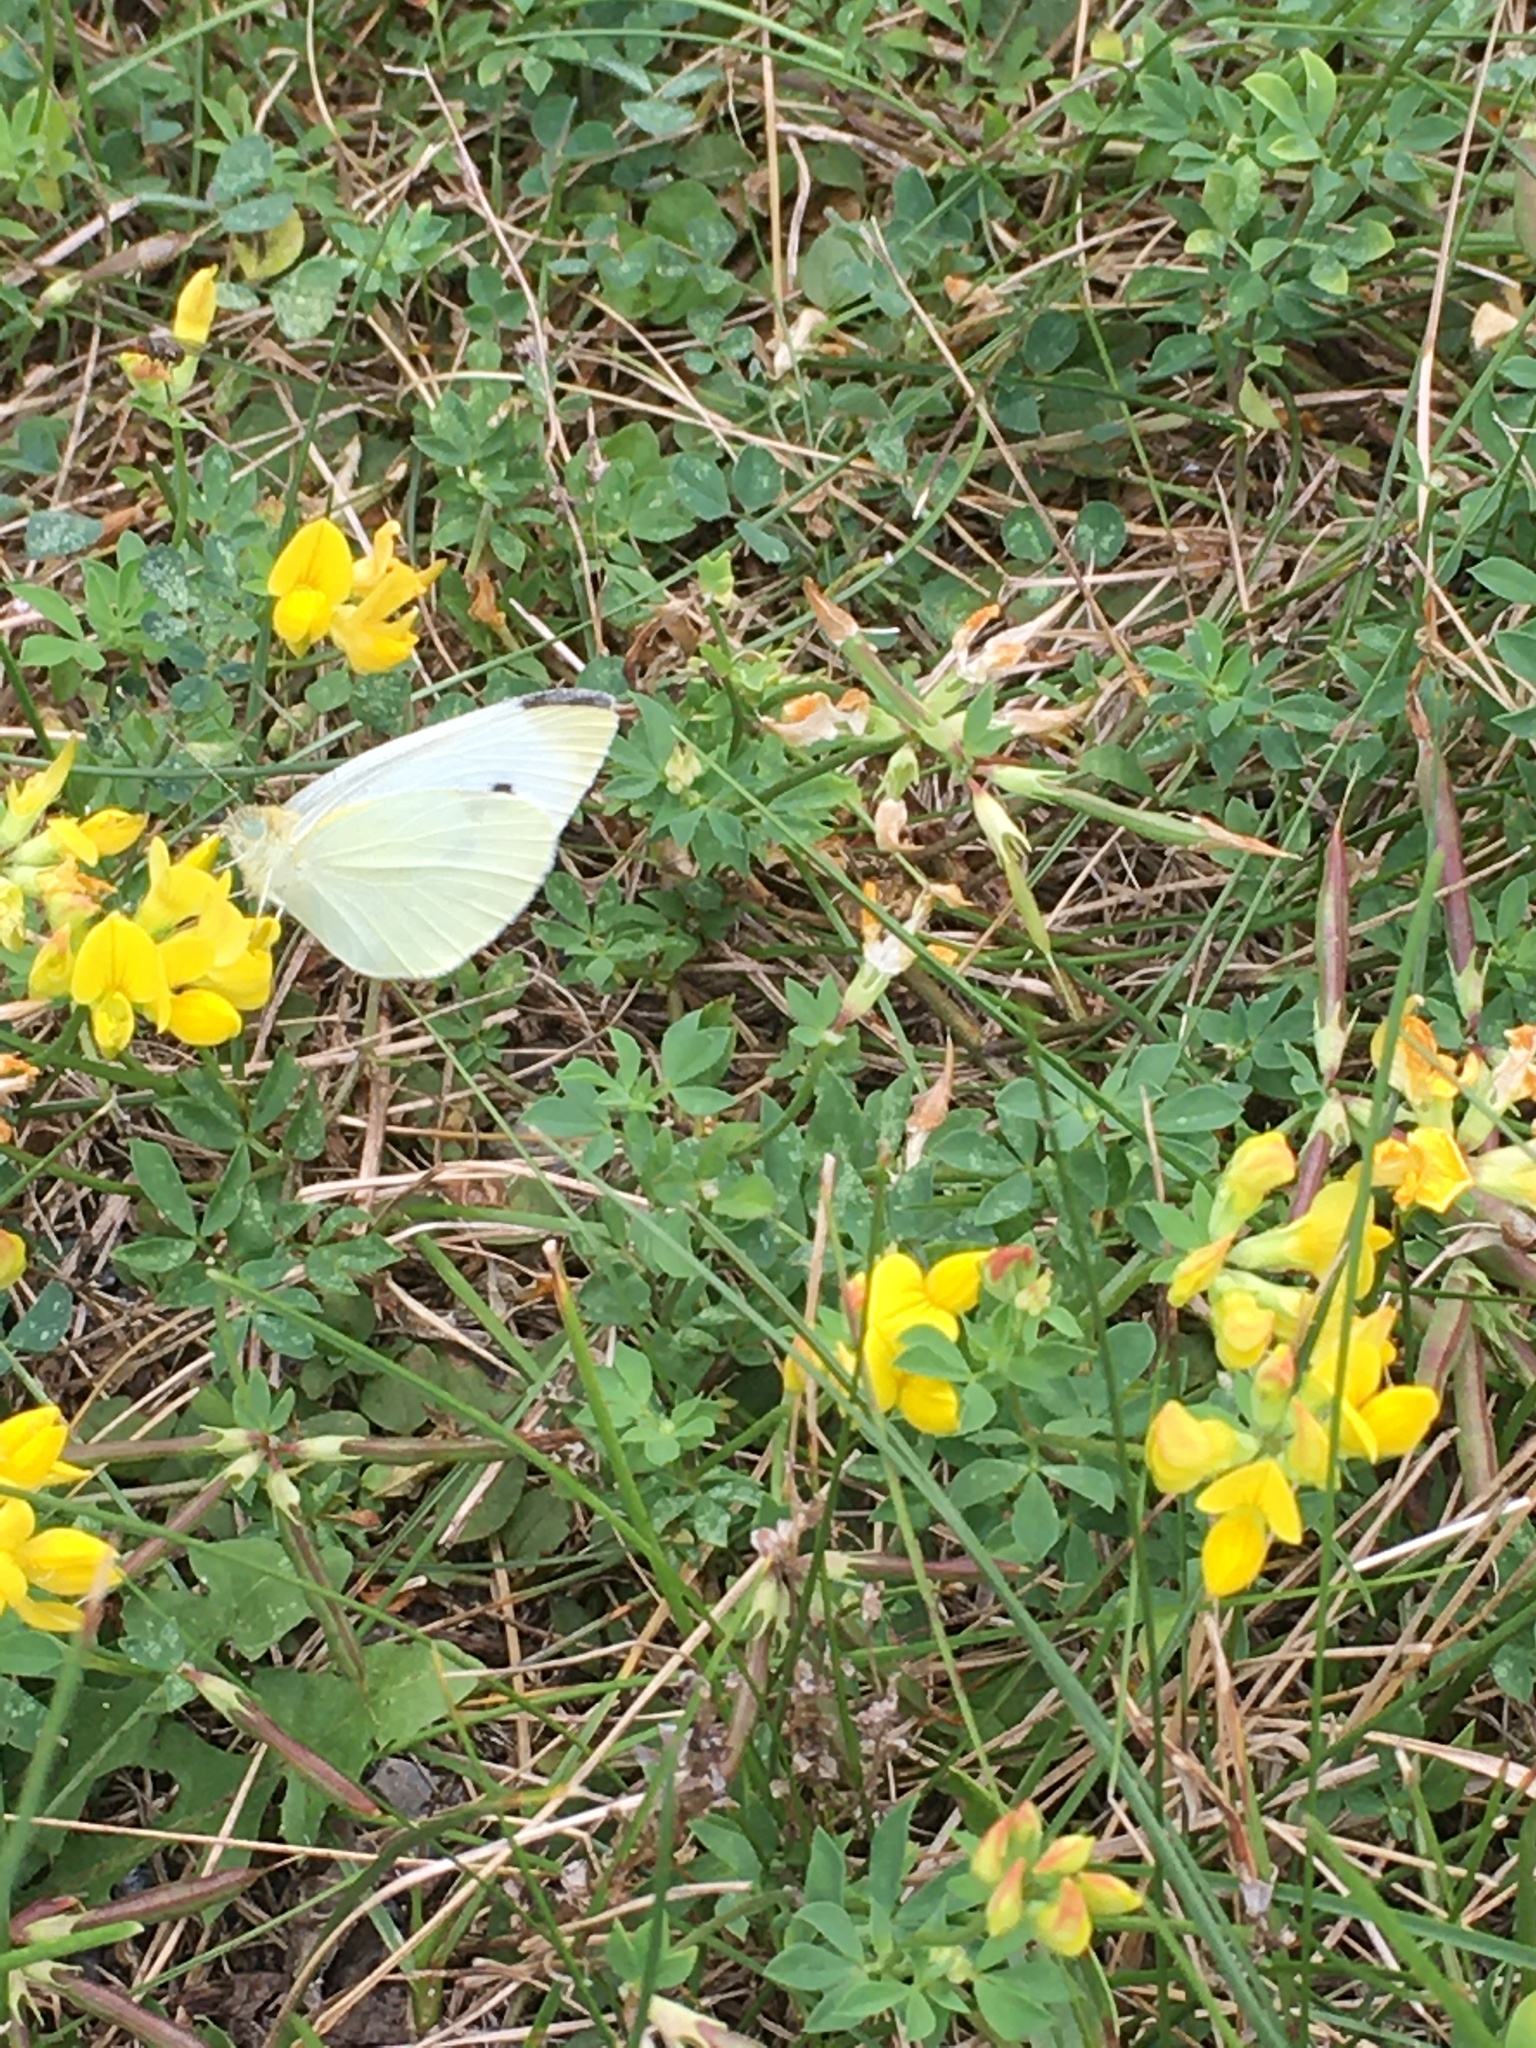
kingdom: Animalia
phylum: Arthropoda
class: Insecta
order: Lepidoptera
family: Pieridae
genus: Pieris
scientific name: Pieris rapae
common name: Small white
